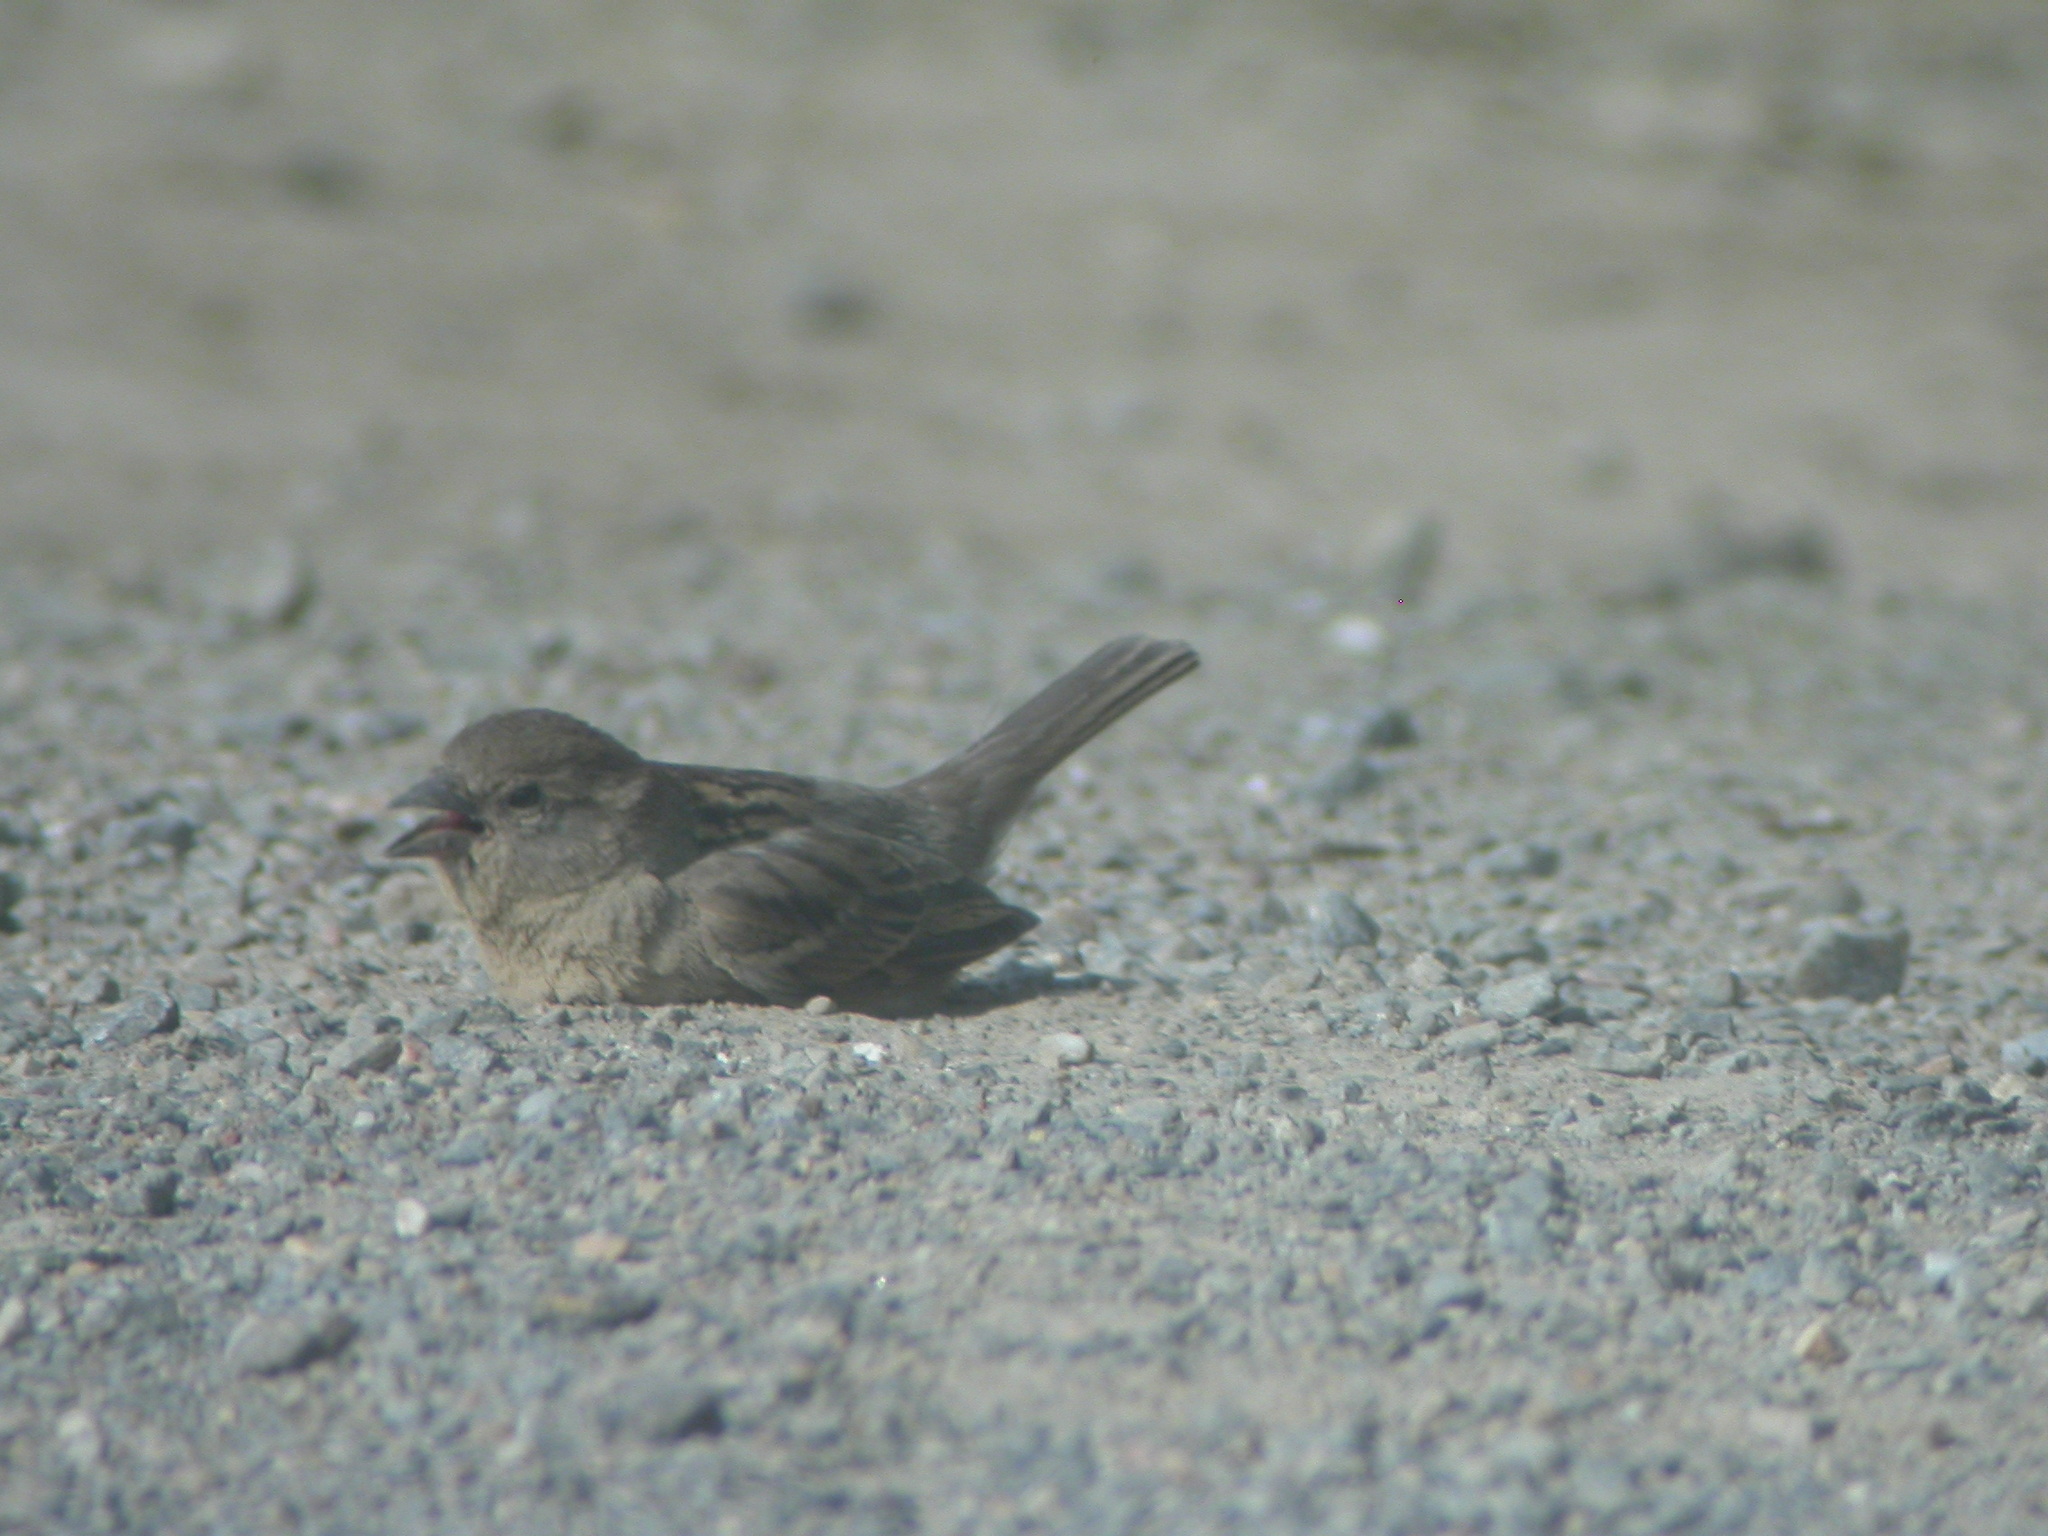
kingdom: Animalia
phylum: Chordata
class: Aves
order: Passeriformes
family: Passeridae
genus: Passer
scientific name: Passer domesticus
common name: House sparrow
